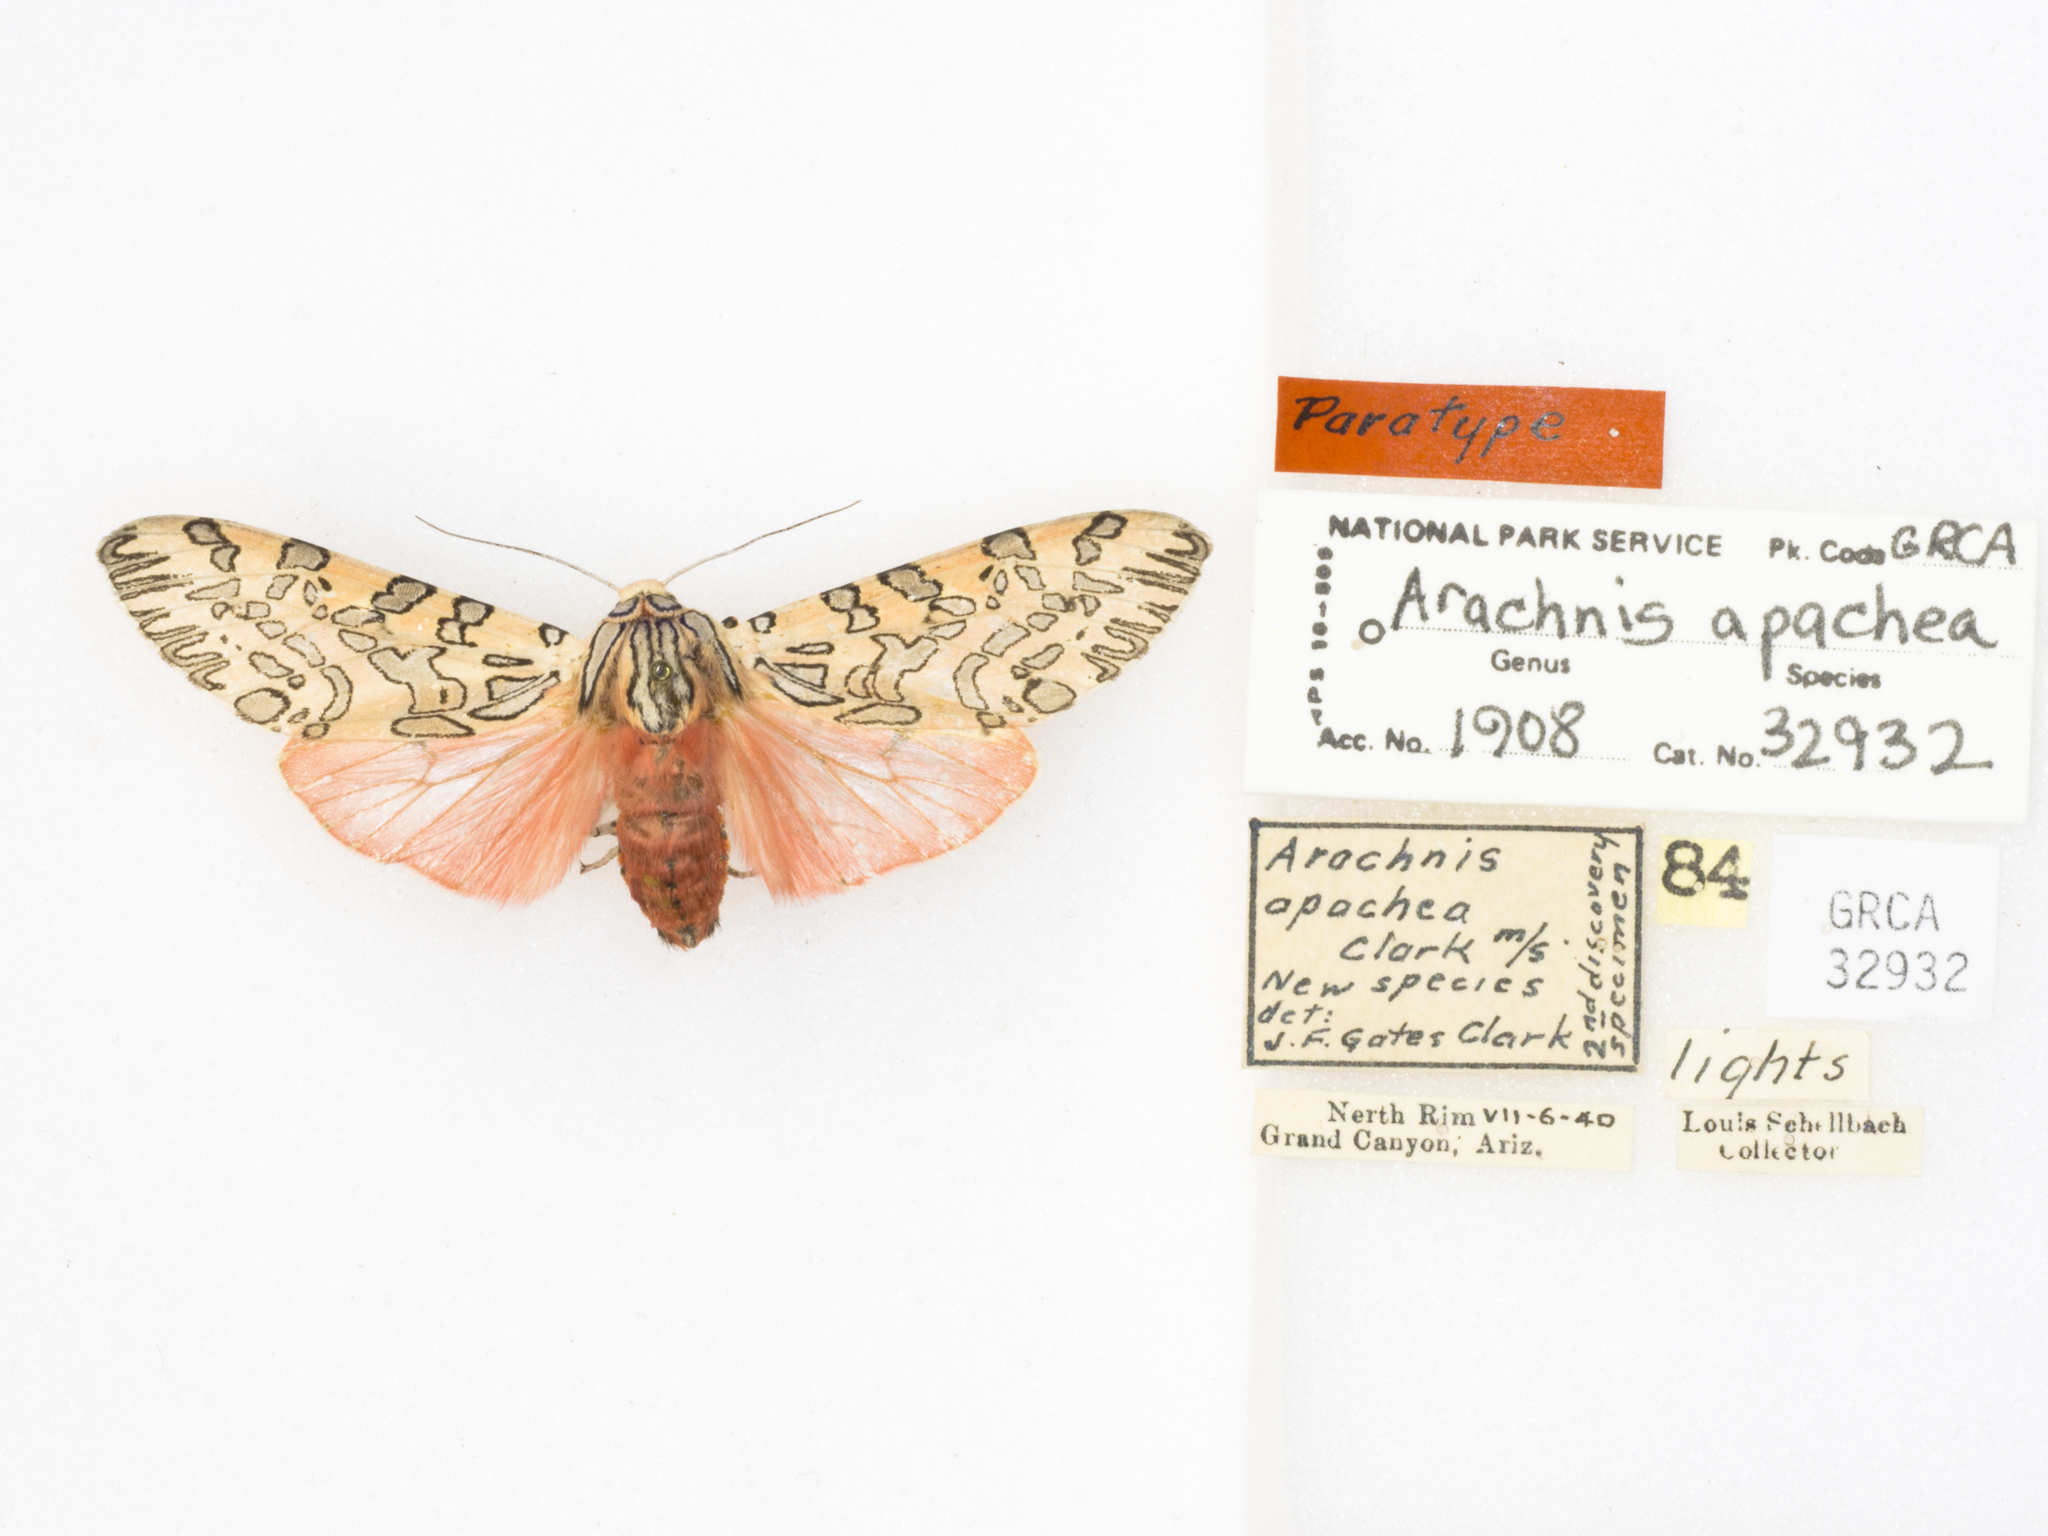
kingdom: Animalia
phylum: Arthropoda
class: Insecta
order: Lepidoptera
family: Erebidae
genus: Arachnis
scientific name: Arachnis citra
